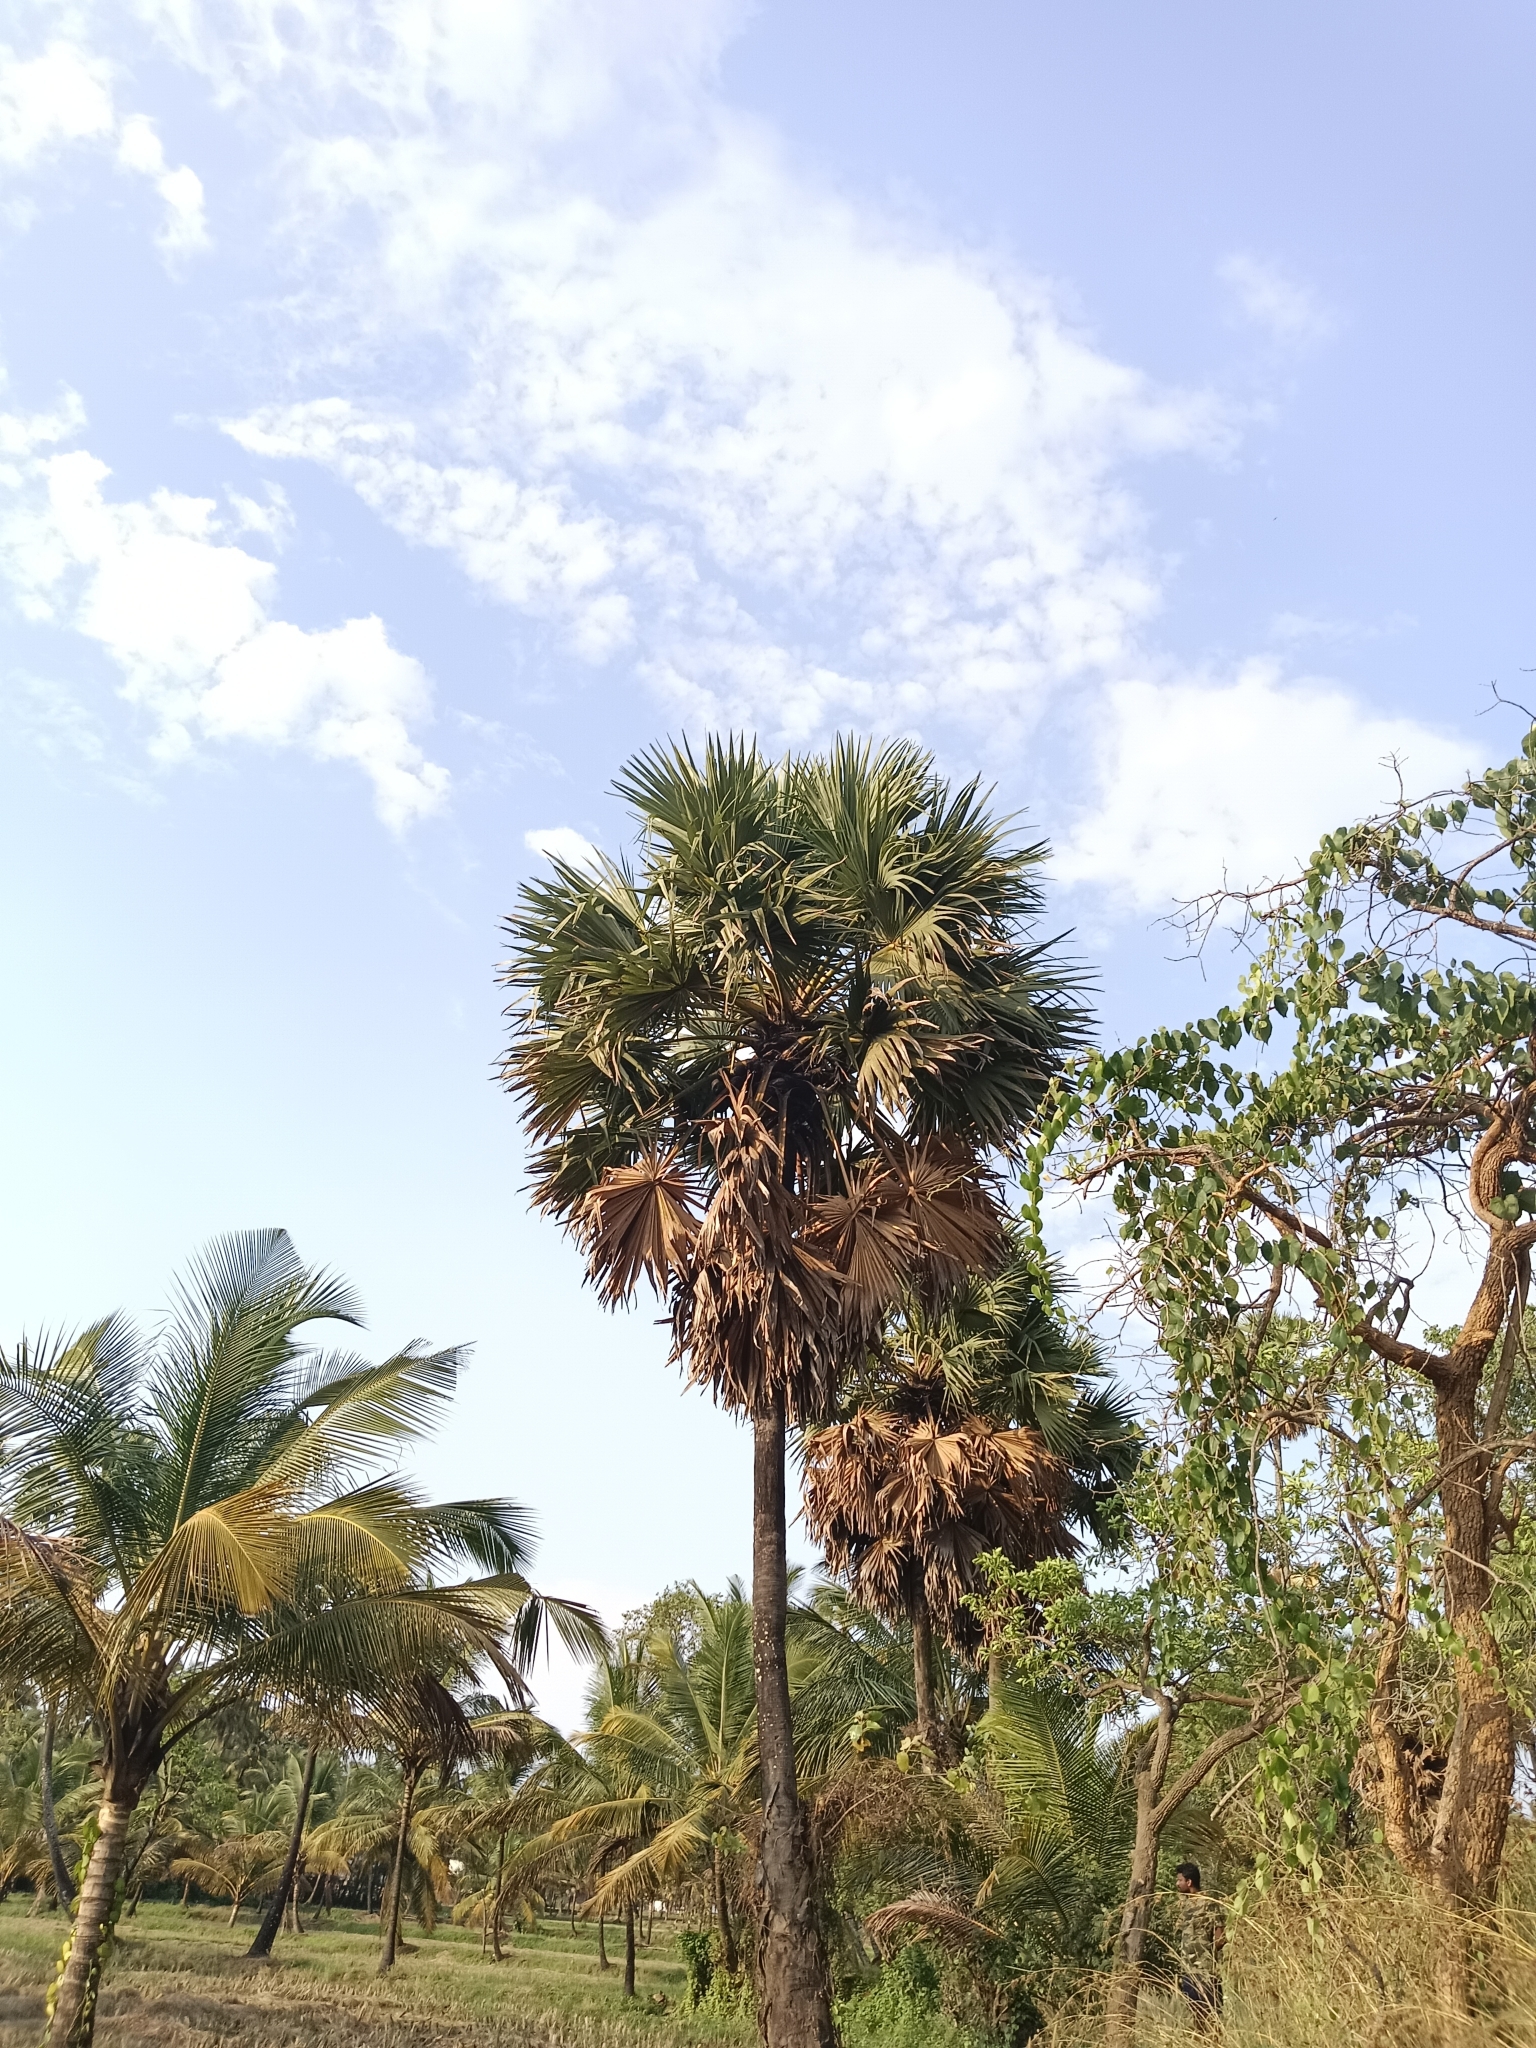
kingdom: Plantae
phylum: Tracheophyta
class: Liliopsida
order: Arecales
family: Arecaceae
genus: Borassus
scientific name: Borassus flabellifer
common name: Palmyra palm
